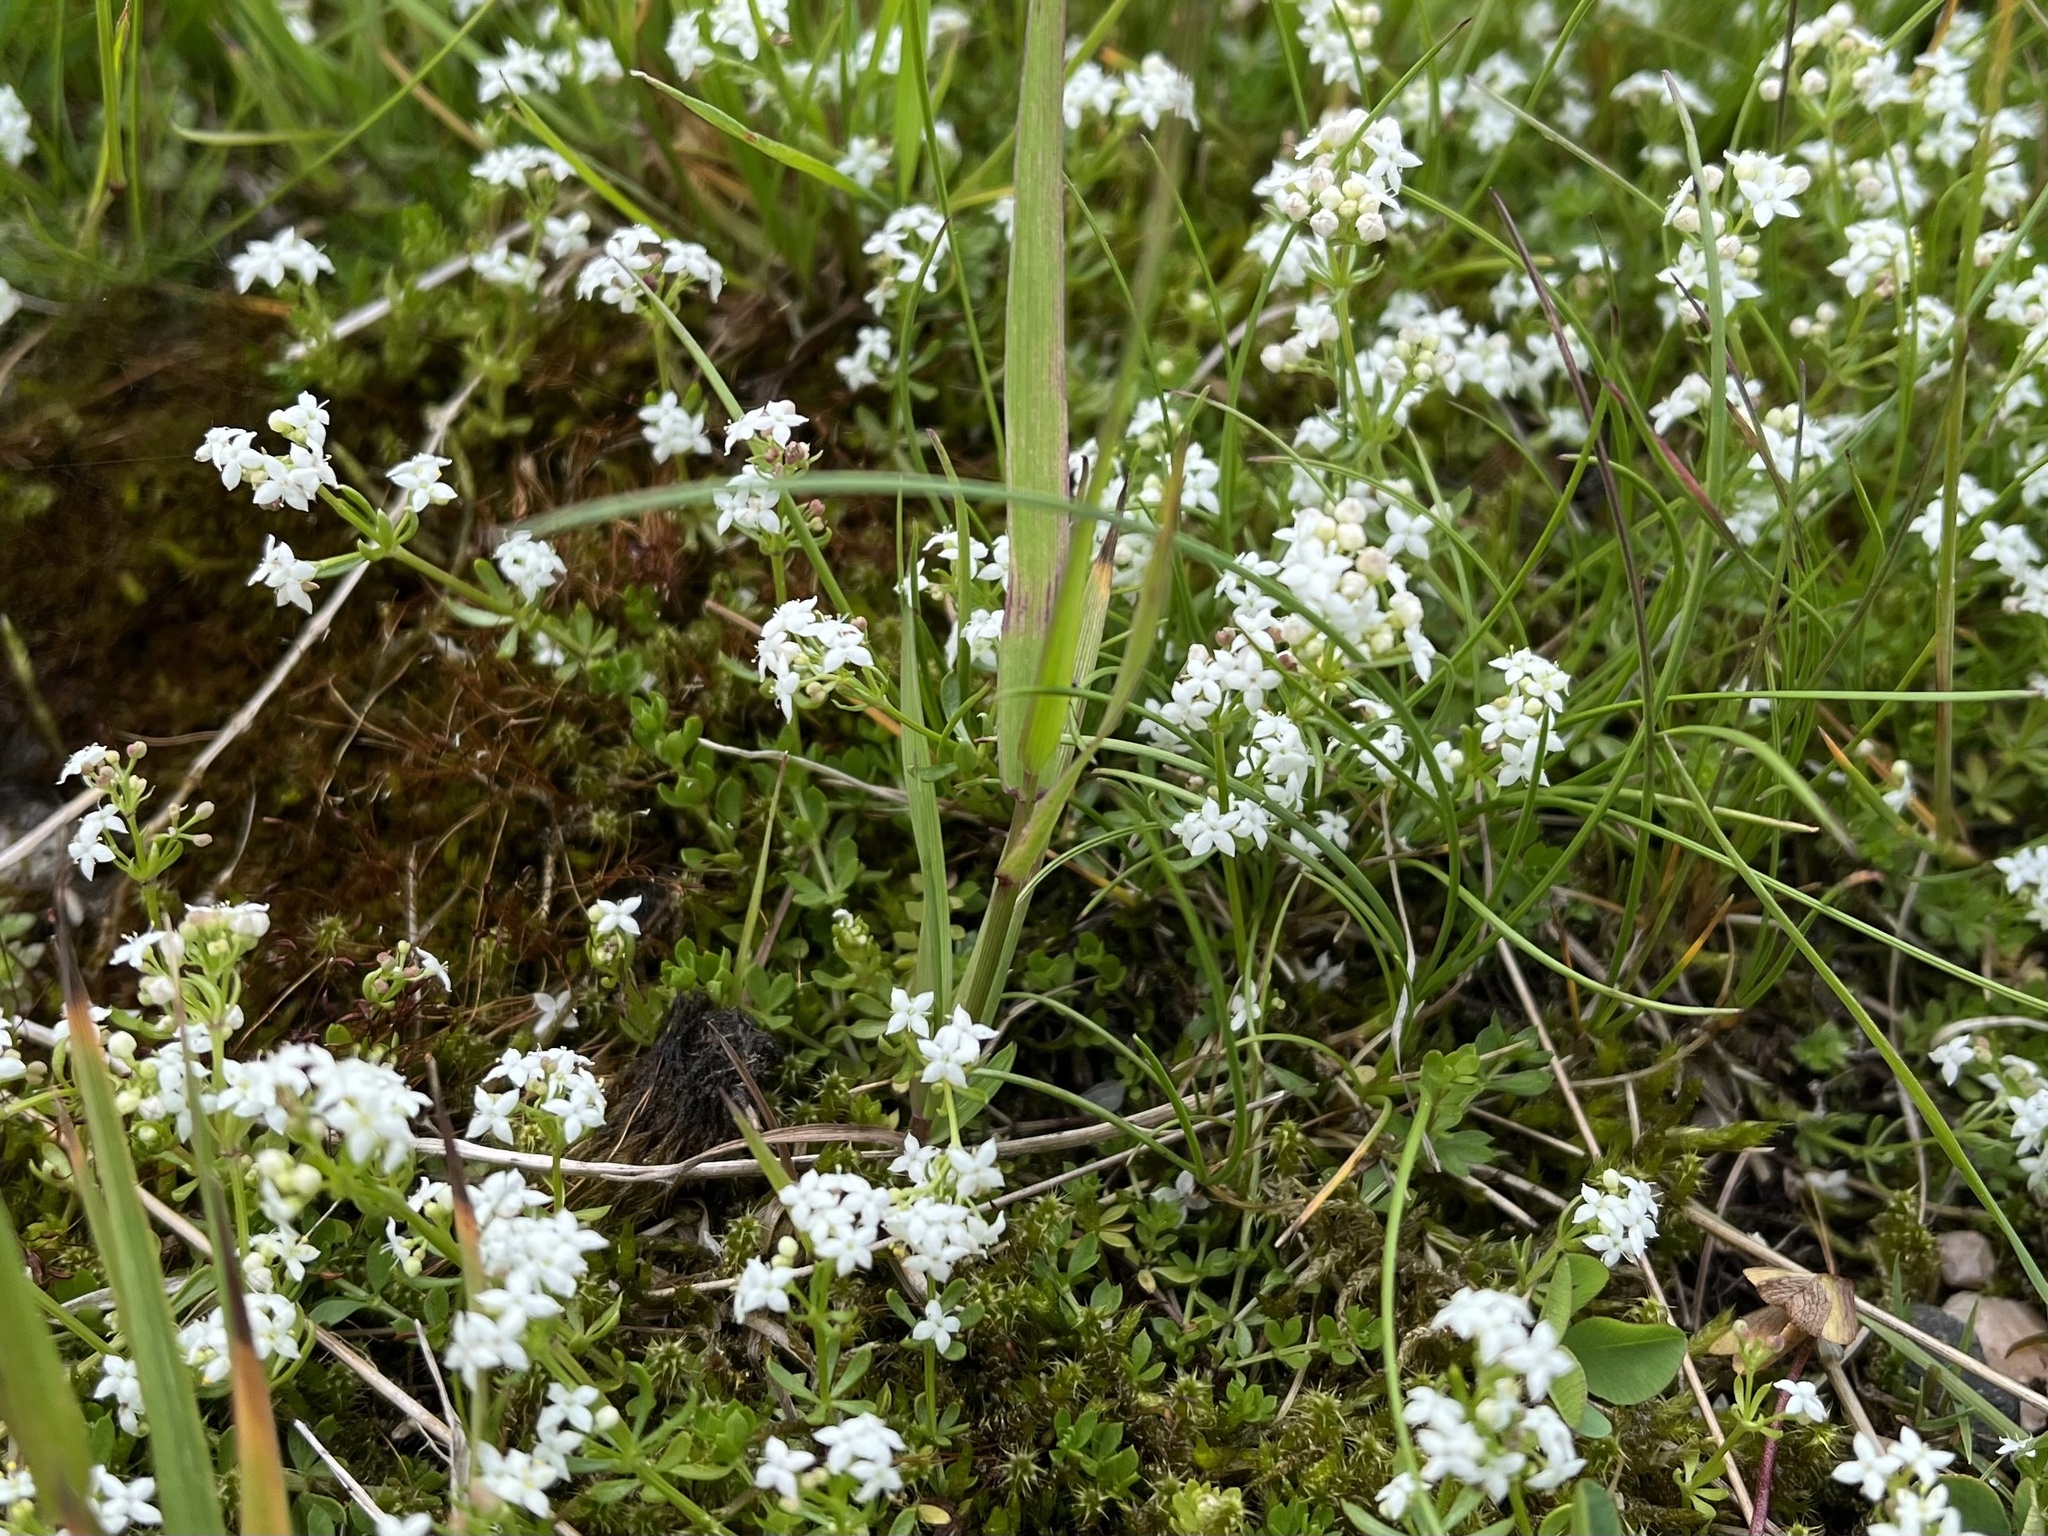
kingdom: Plantae
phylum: Tracheophyta
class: Magnoliopsida
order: Gentianales
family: Rubiaceae
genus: Galium
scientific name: Galium saxatile
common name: Heath bedstraw
